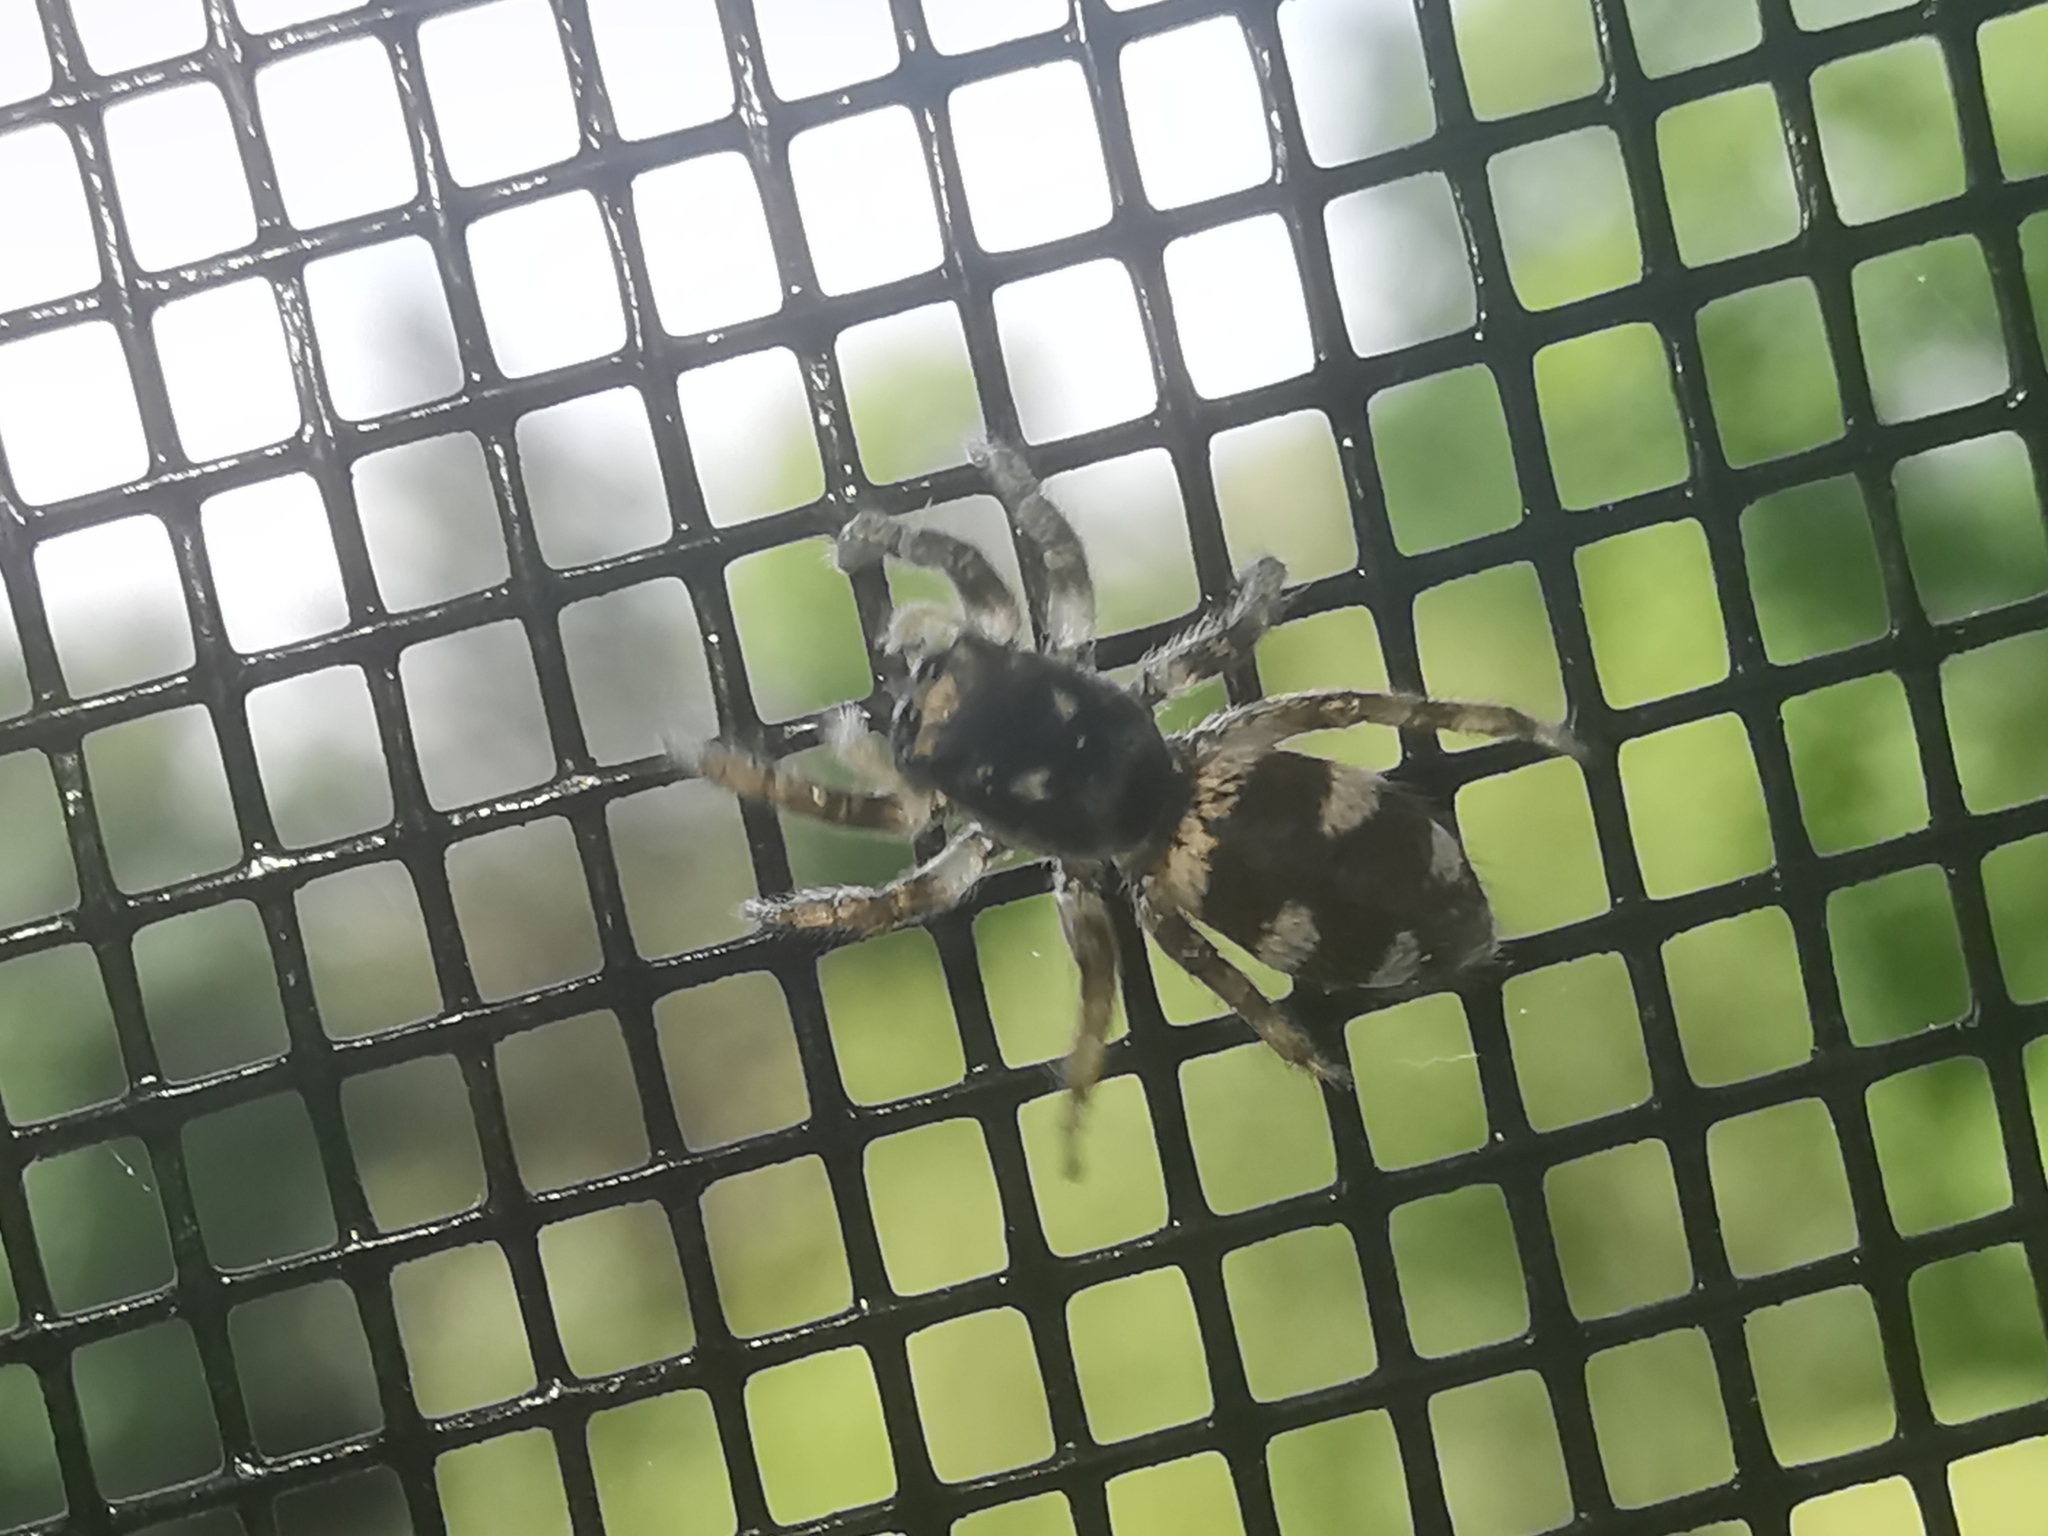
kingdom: Animalia
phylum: Arthropoda
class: Arachnida
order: Araneae
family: Salticidae
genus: Salticus
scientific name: Salticus scenicus
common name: Zebra jumper
